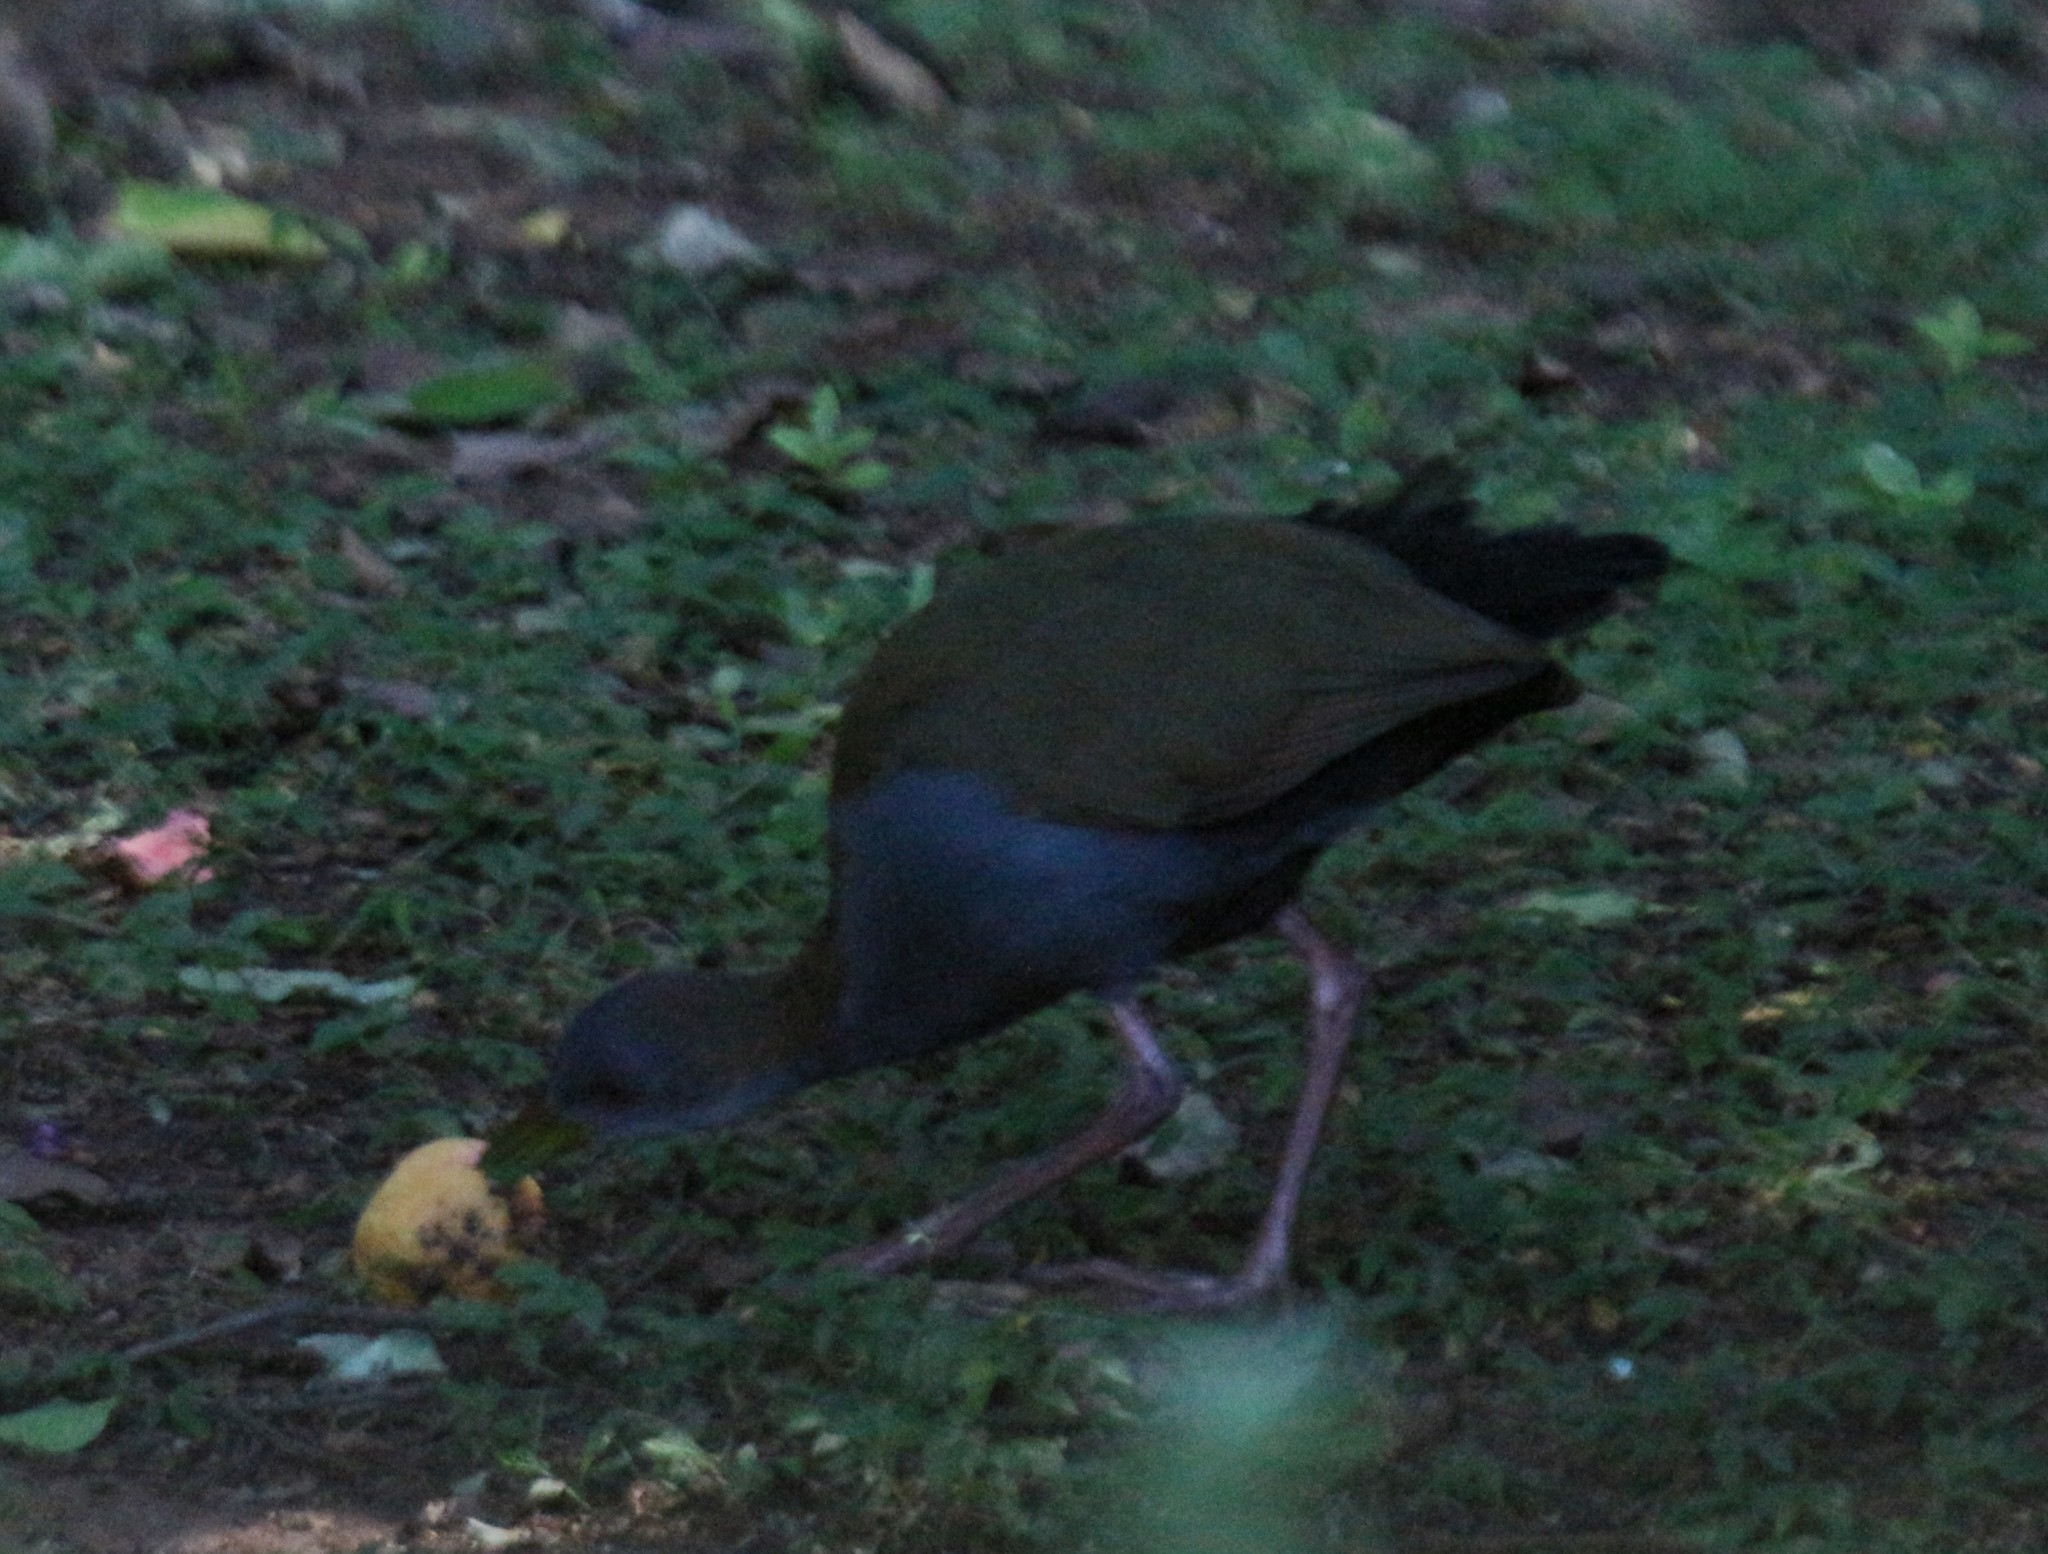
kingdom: Animalia
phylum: Chordata
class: Aves
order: Gruiformes
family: Rallidae
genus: Aramides
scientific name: Aramides saracura
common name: Slaty-breasted wood rail
